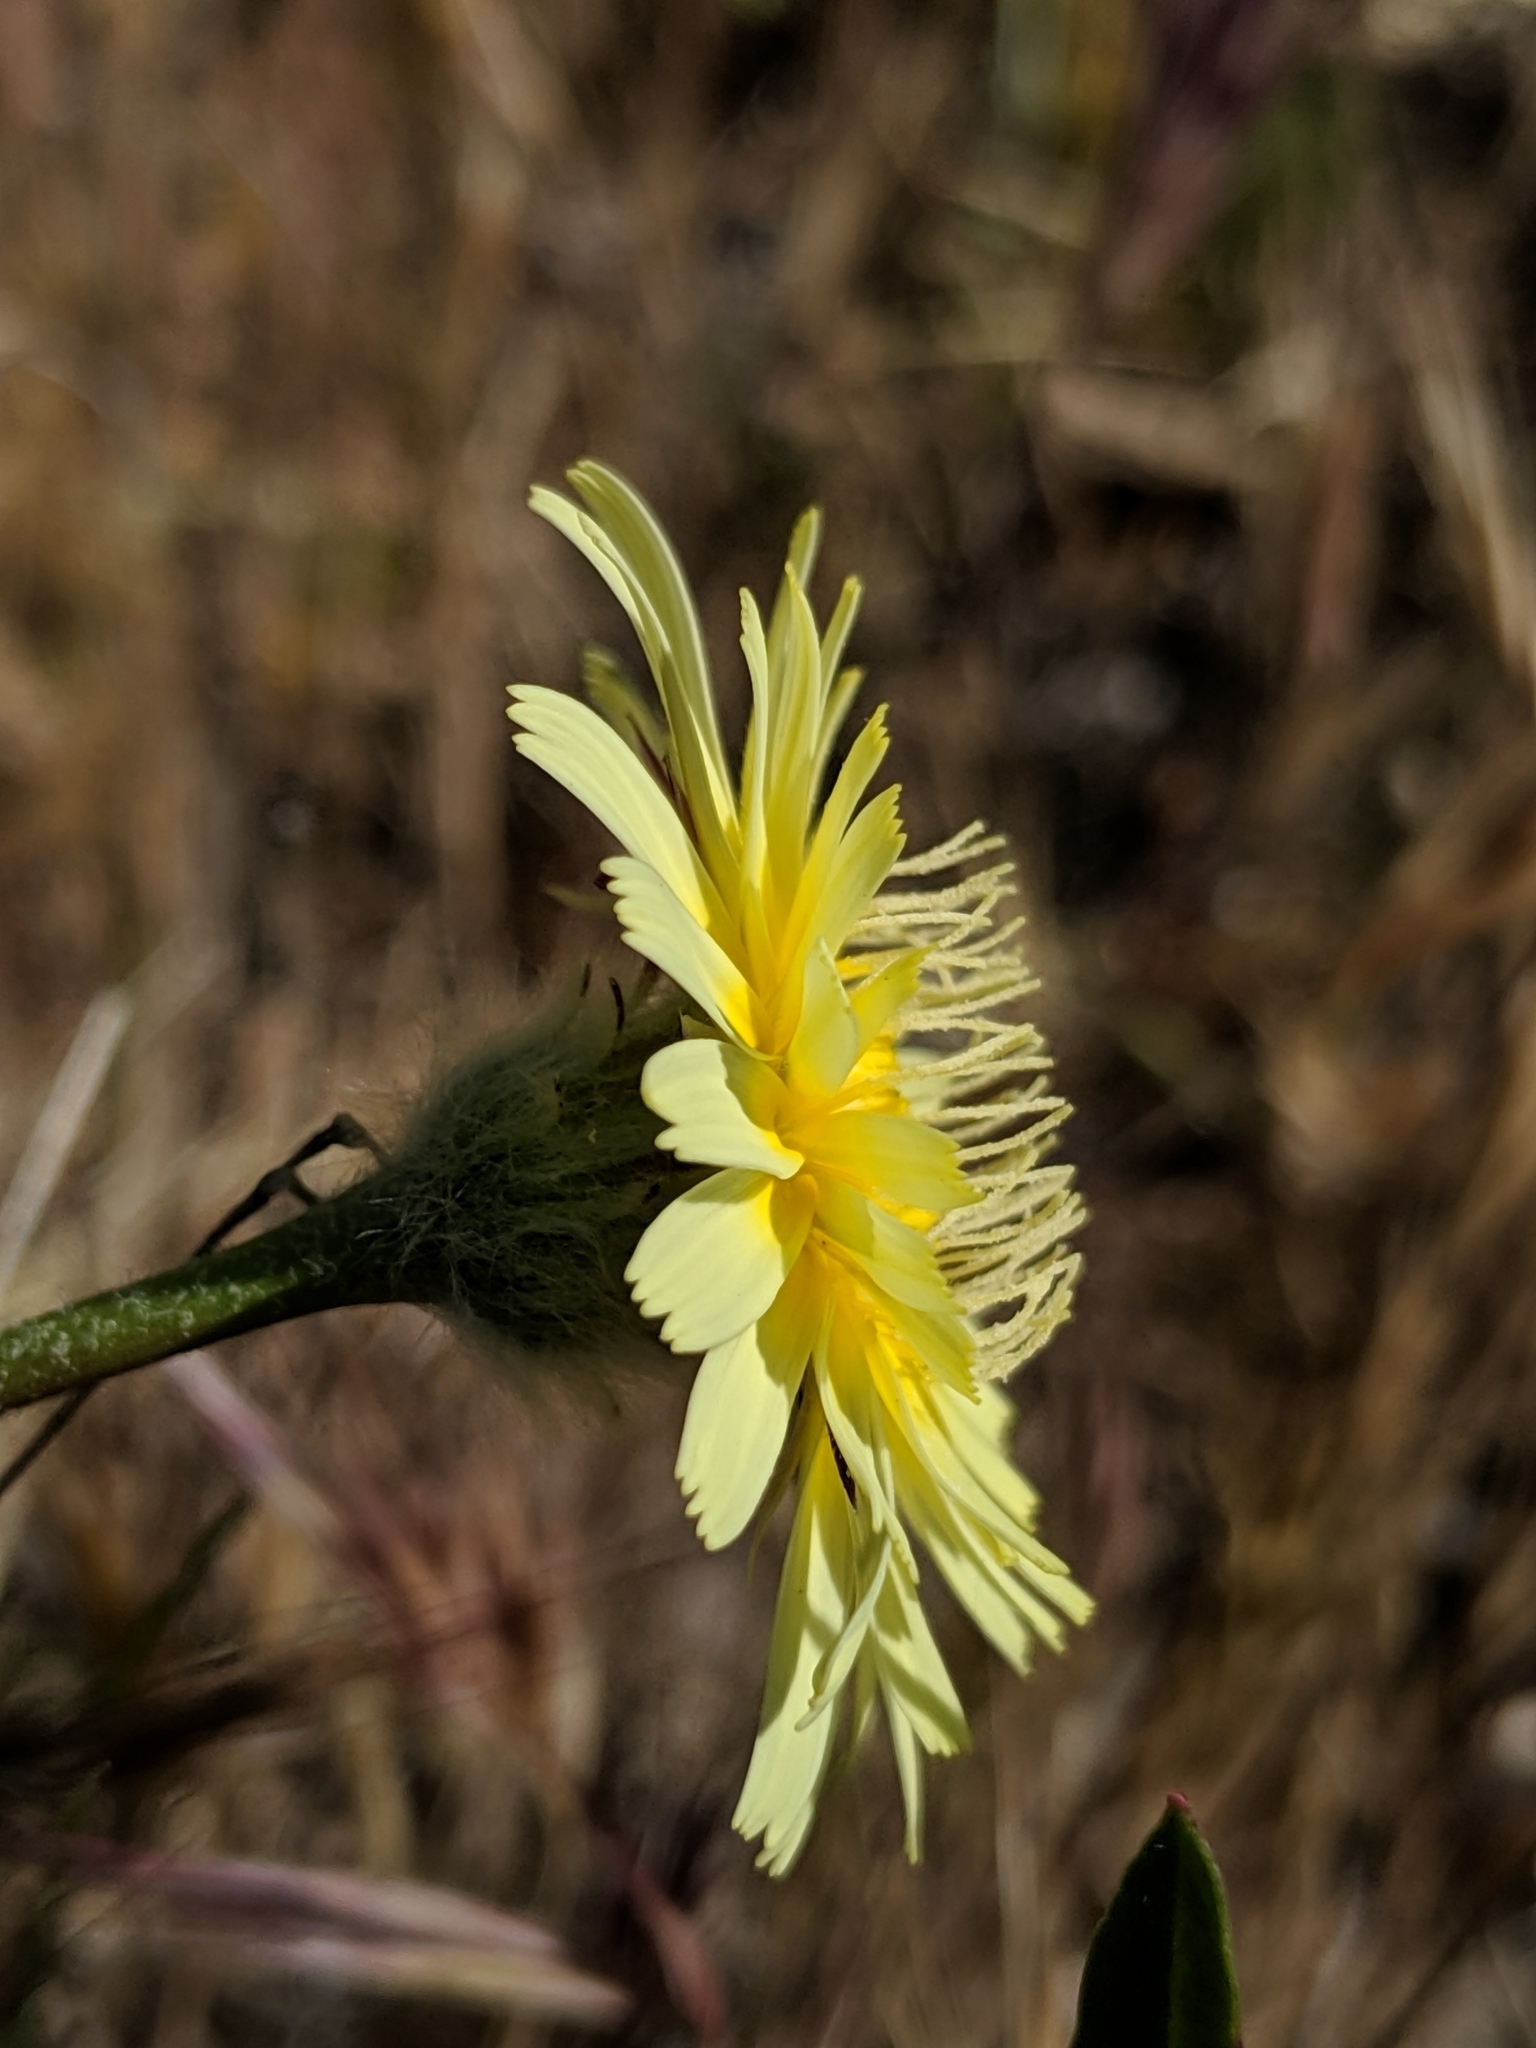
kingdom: Plantae
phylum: Tracheophyta
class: Magnoliopsida
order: Asterales
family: Asteraceae
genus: Malacothrix
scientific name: Malacothrix californica
